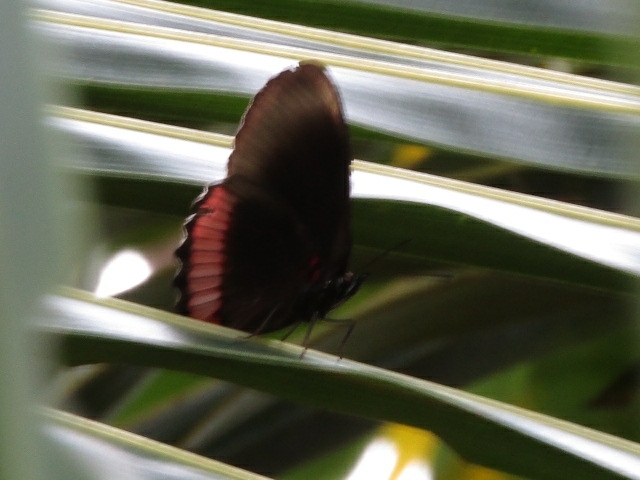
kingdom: Animalia
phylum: Arthropoda
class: Insecta
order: Lepidoptera
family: Sesiidae
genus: Sesia
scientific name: Sesia Biblis hyperia
